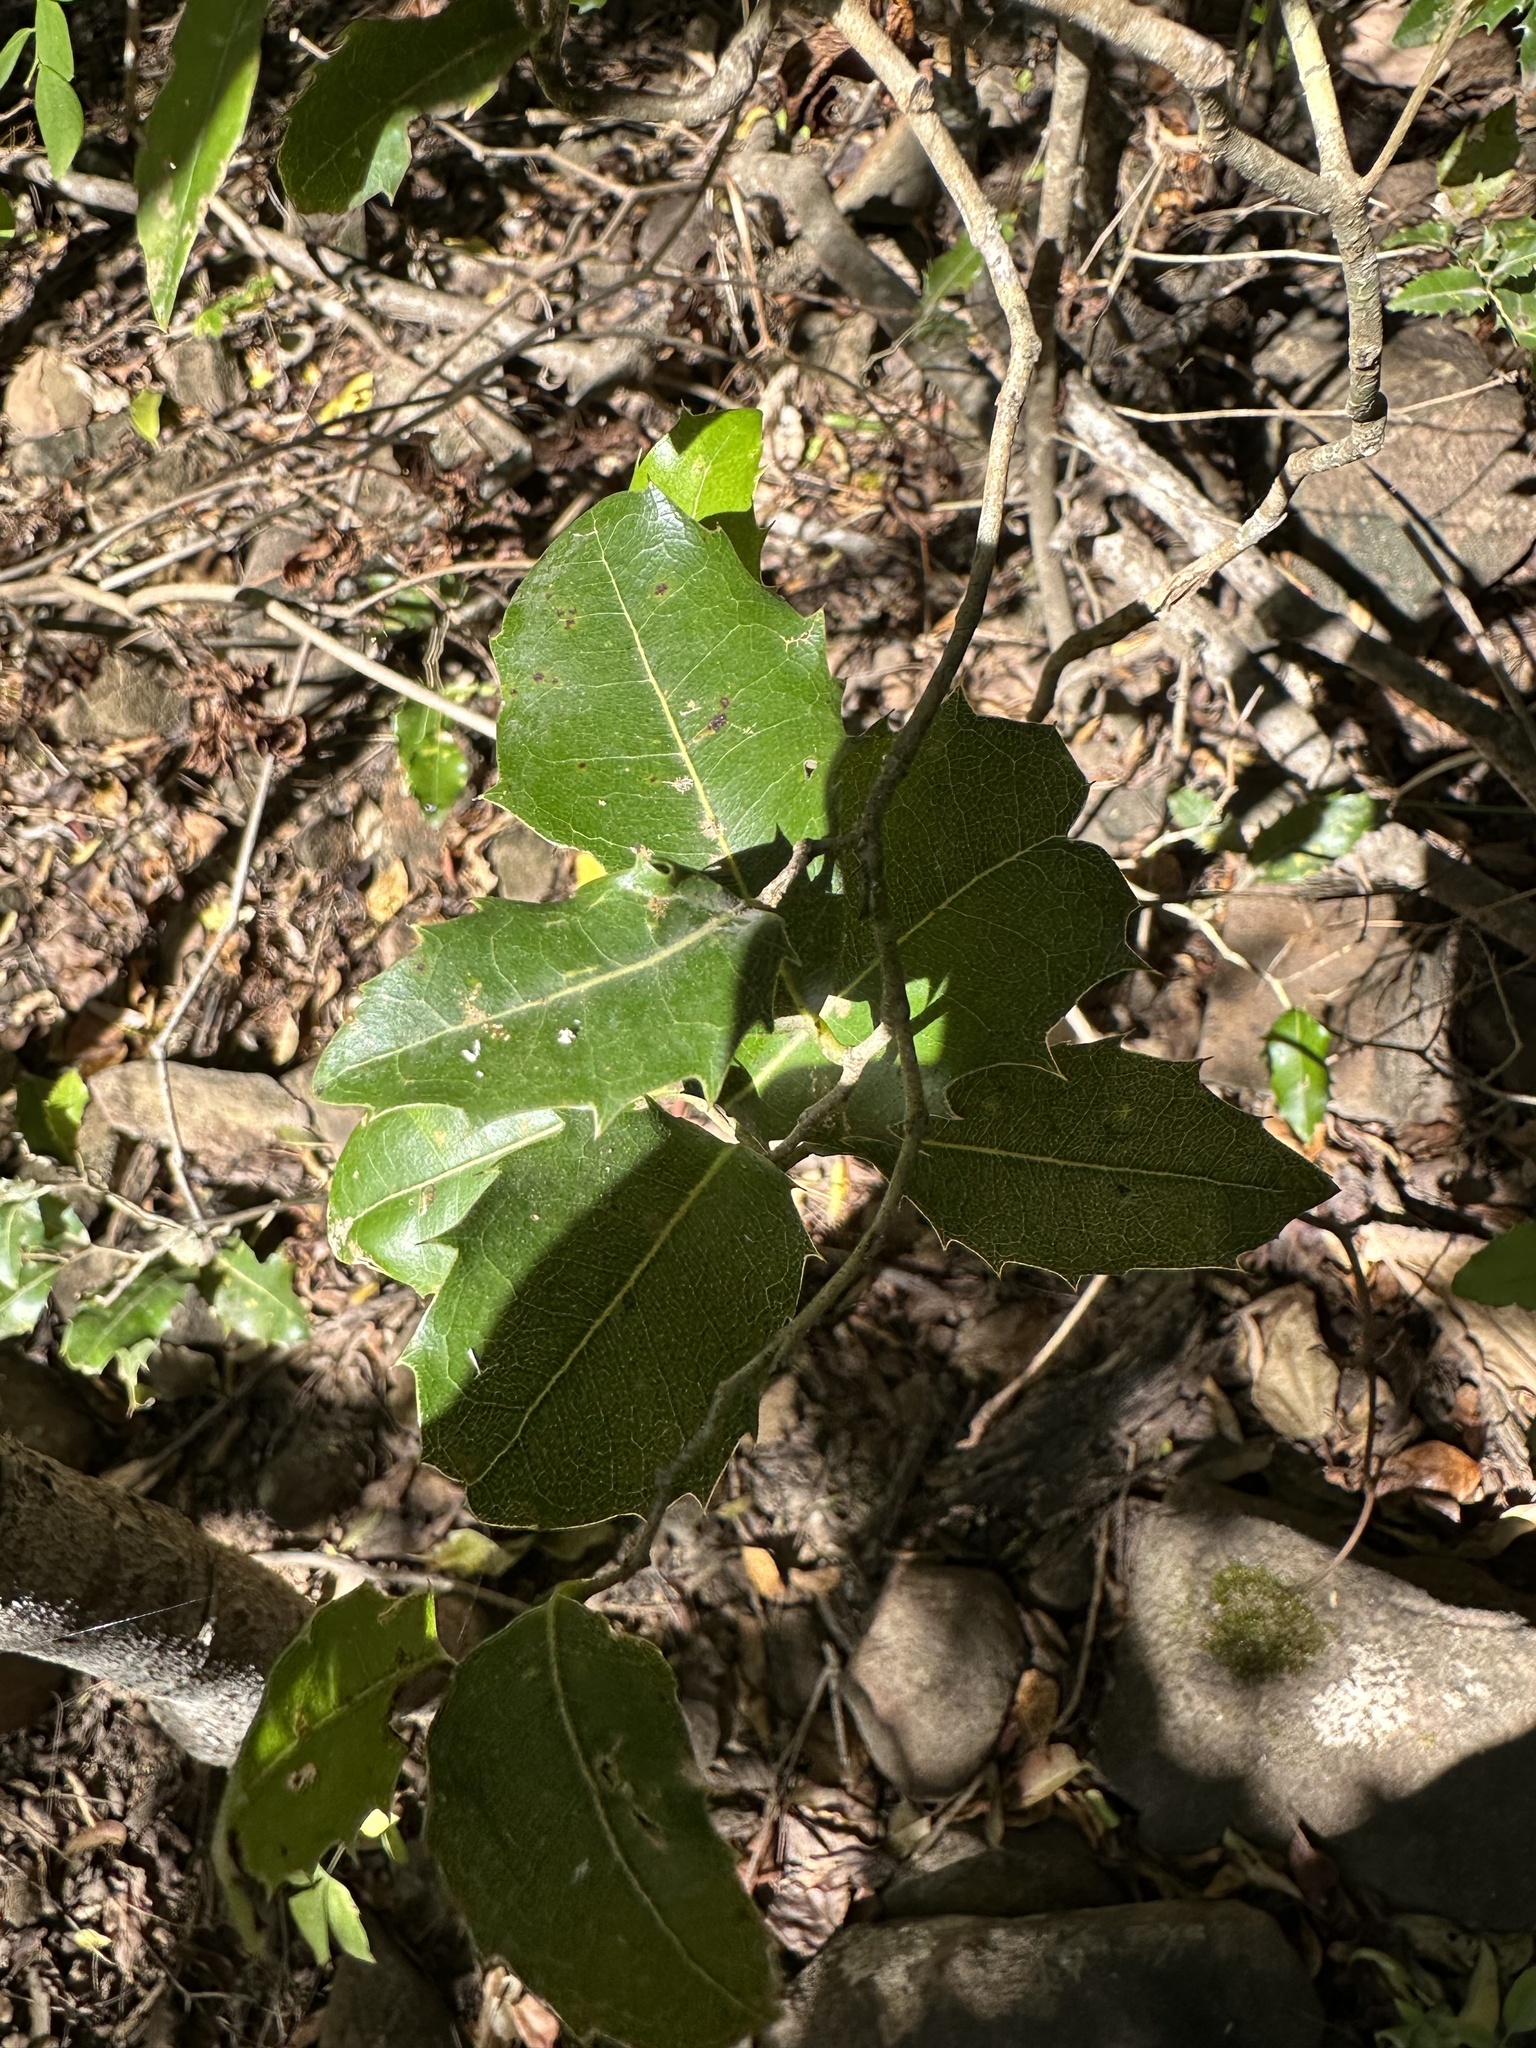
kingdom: Plantae
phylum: Tracheophyta
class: Magnoliopsida
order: Malpighiales
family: Putranjivaceae
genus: Drypetes
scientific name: Drypetes deplanchei
